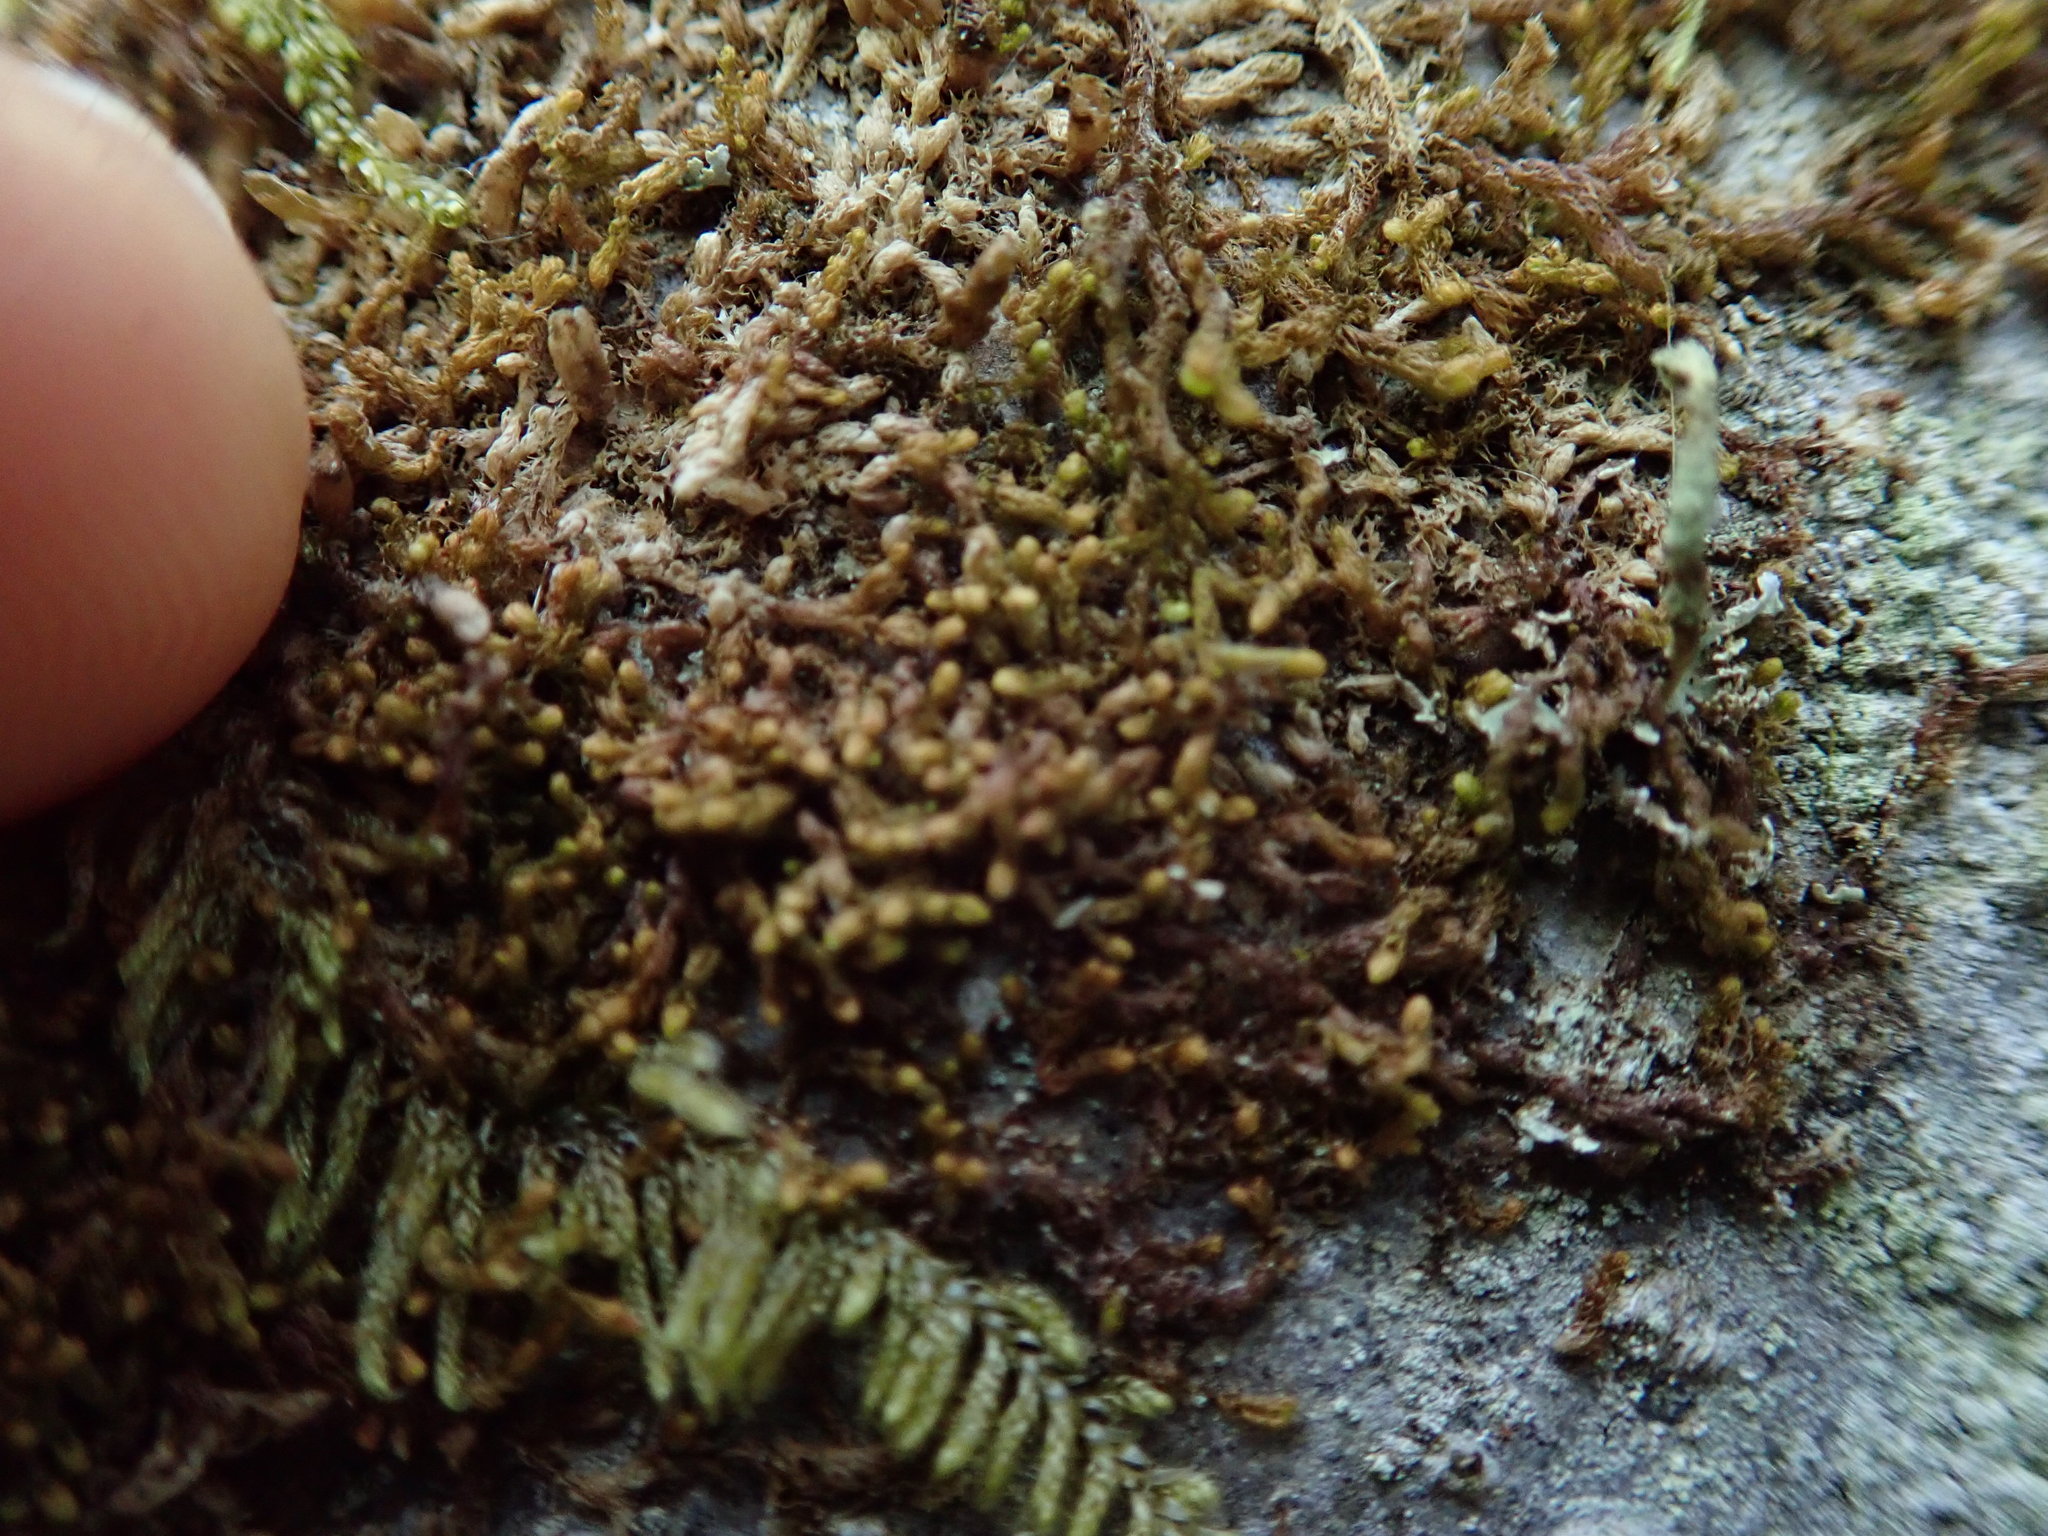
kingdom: Plantae
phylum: Marchantiophyta
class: Jungermanniopsida
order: Ptilidiales
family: Ptilidiaceae
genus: Ptilidium
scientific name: Ptilidium californicum
